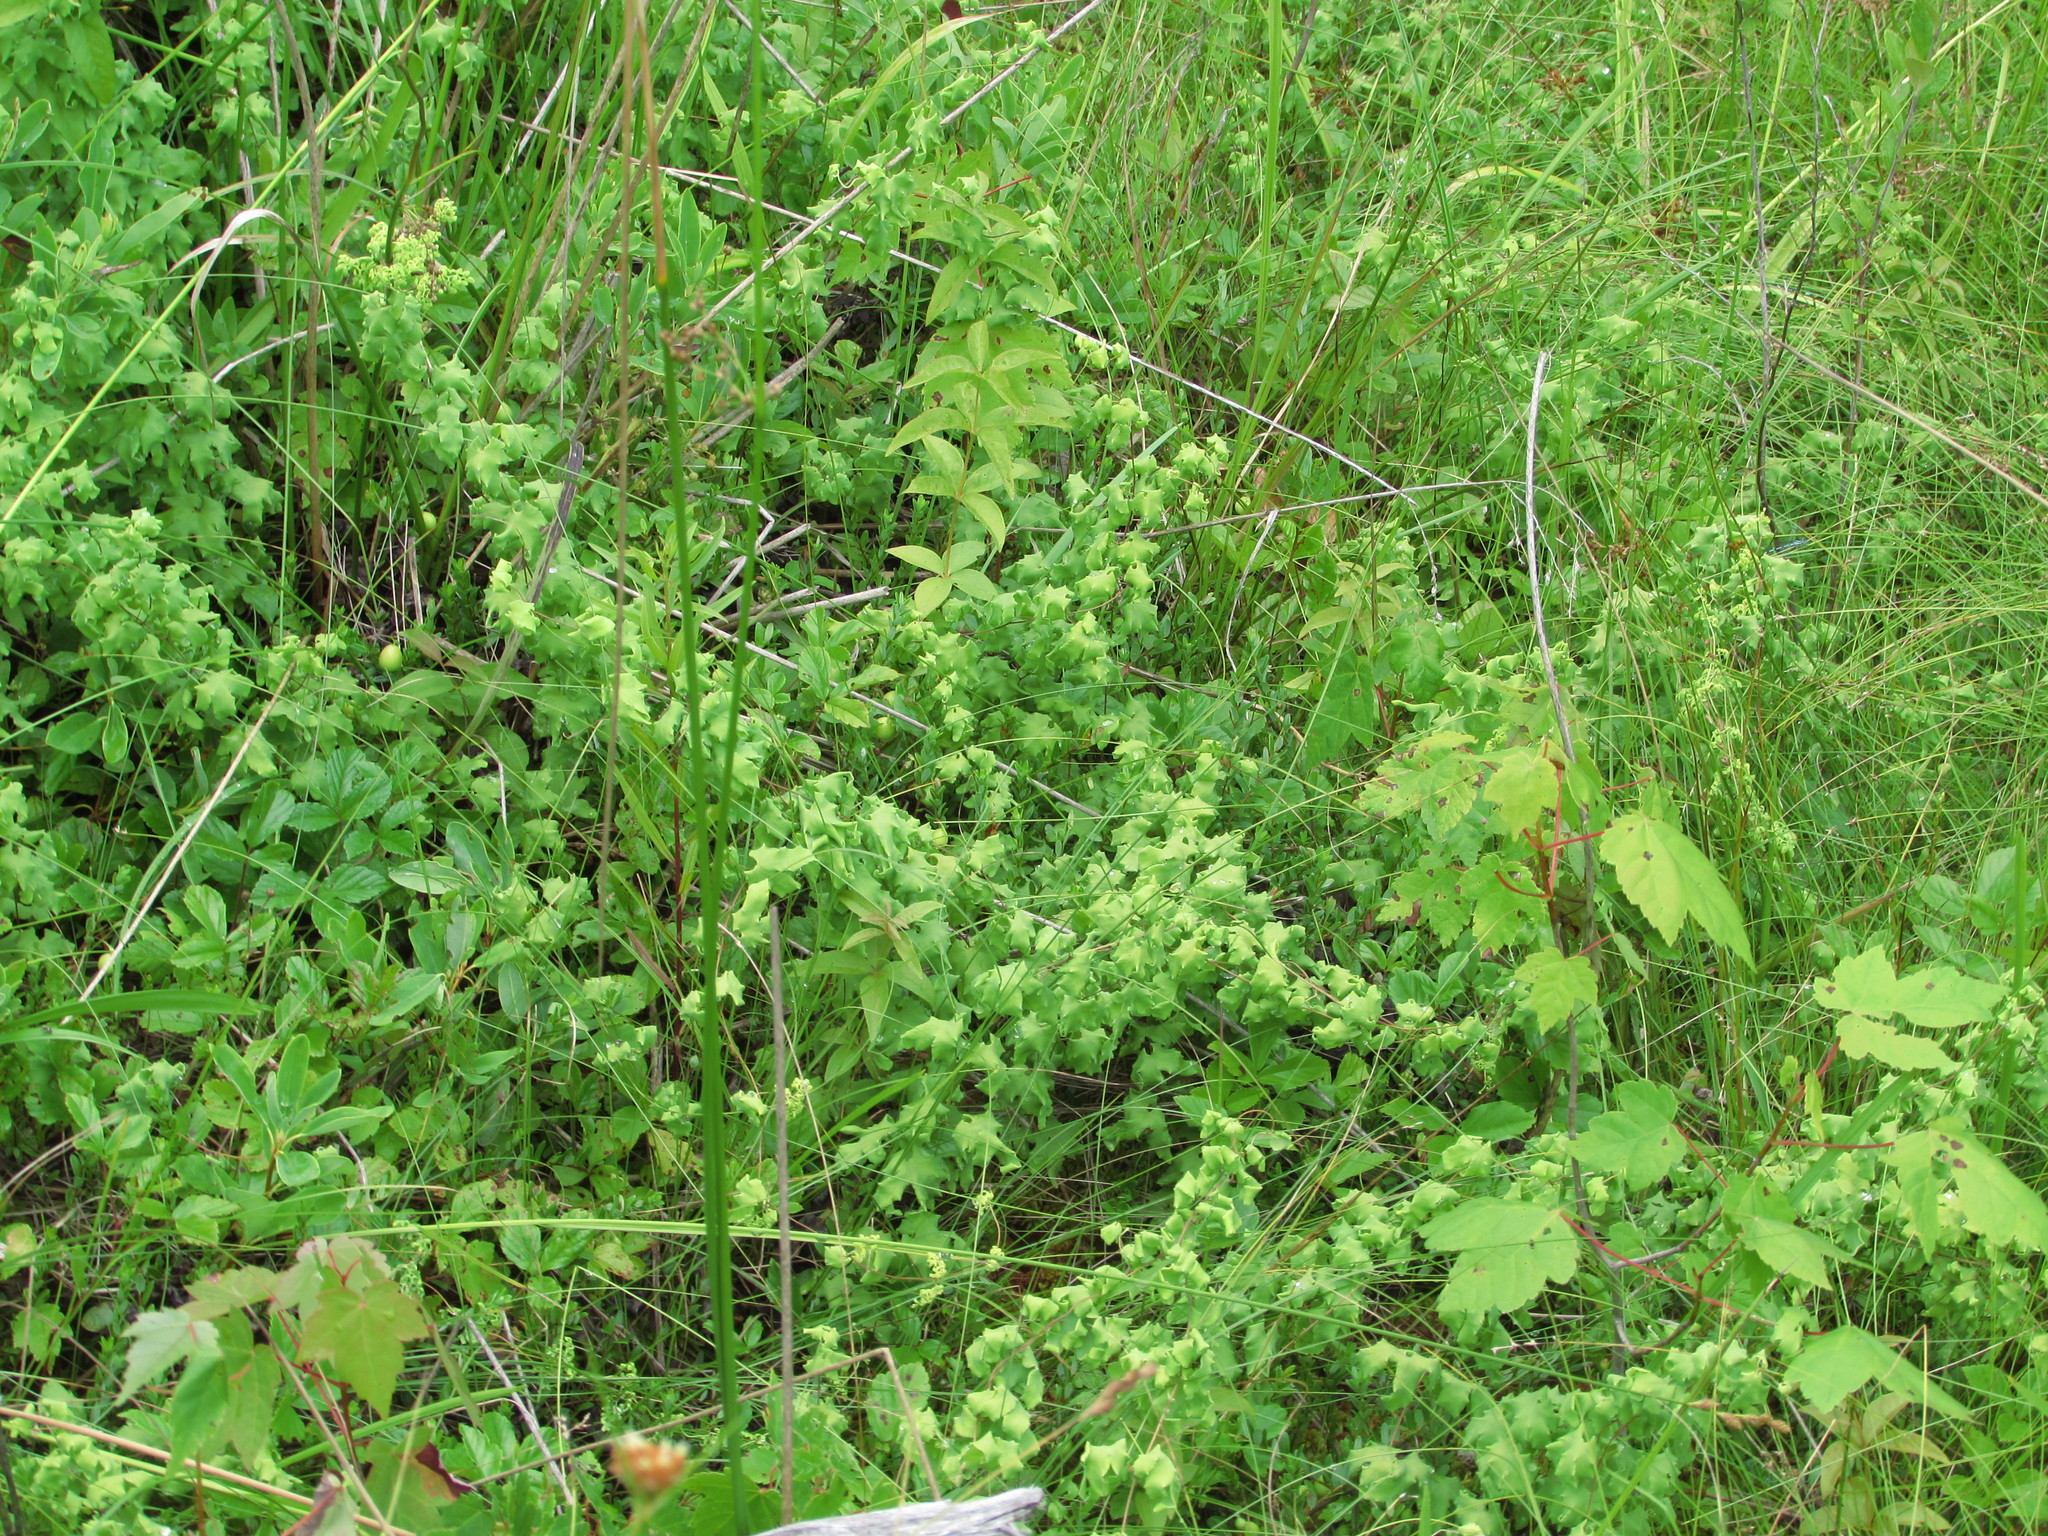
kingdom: Plantae
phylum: Tracheophyta
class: Polypodiopsida
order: Schizaeales
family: Lygodiaceae
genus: Lygodium
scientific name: Lygodium palmatum
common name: American climbing fern
